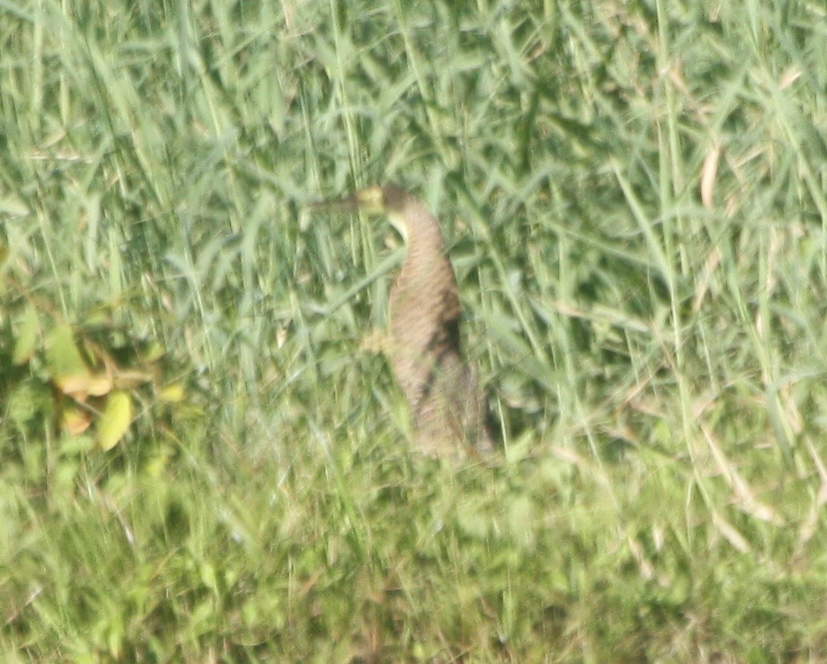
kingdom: Animalia
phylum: Chordata
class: Aves
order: Pelecaniformes
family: Ardeidae
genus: Tigrisoma
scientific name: Tigrisoma mexicanum
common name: Bare-throated tiger-heron
